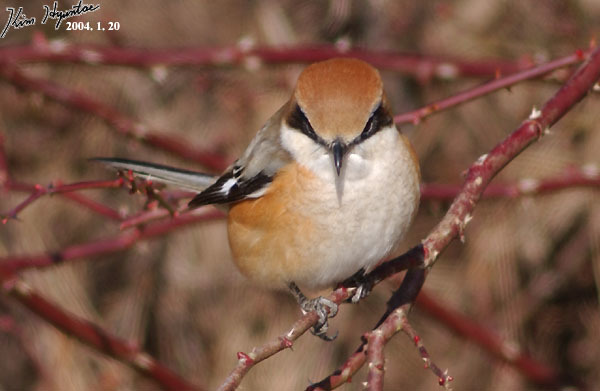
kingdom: Animalia
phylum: Chordata
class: Aves
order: Passeriformes
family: Laniidae
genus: Lanius
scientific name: Lanius bucephalus
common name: Bull-headed shrike
